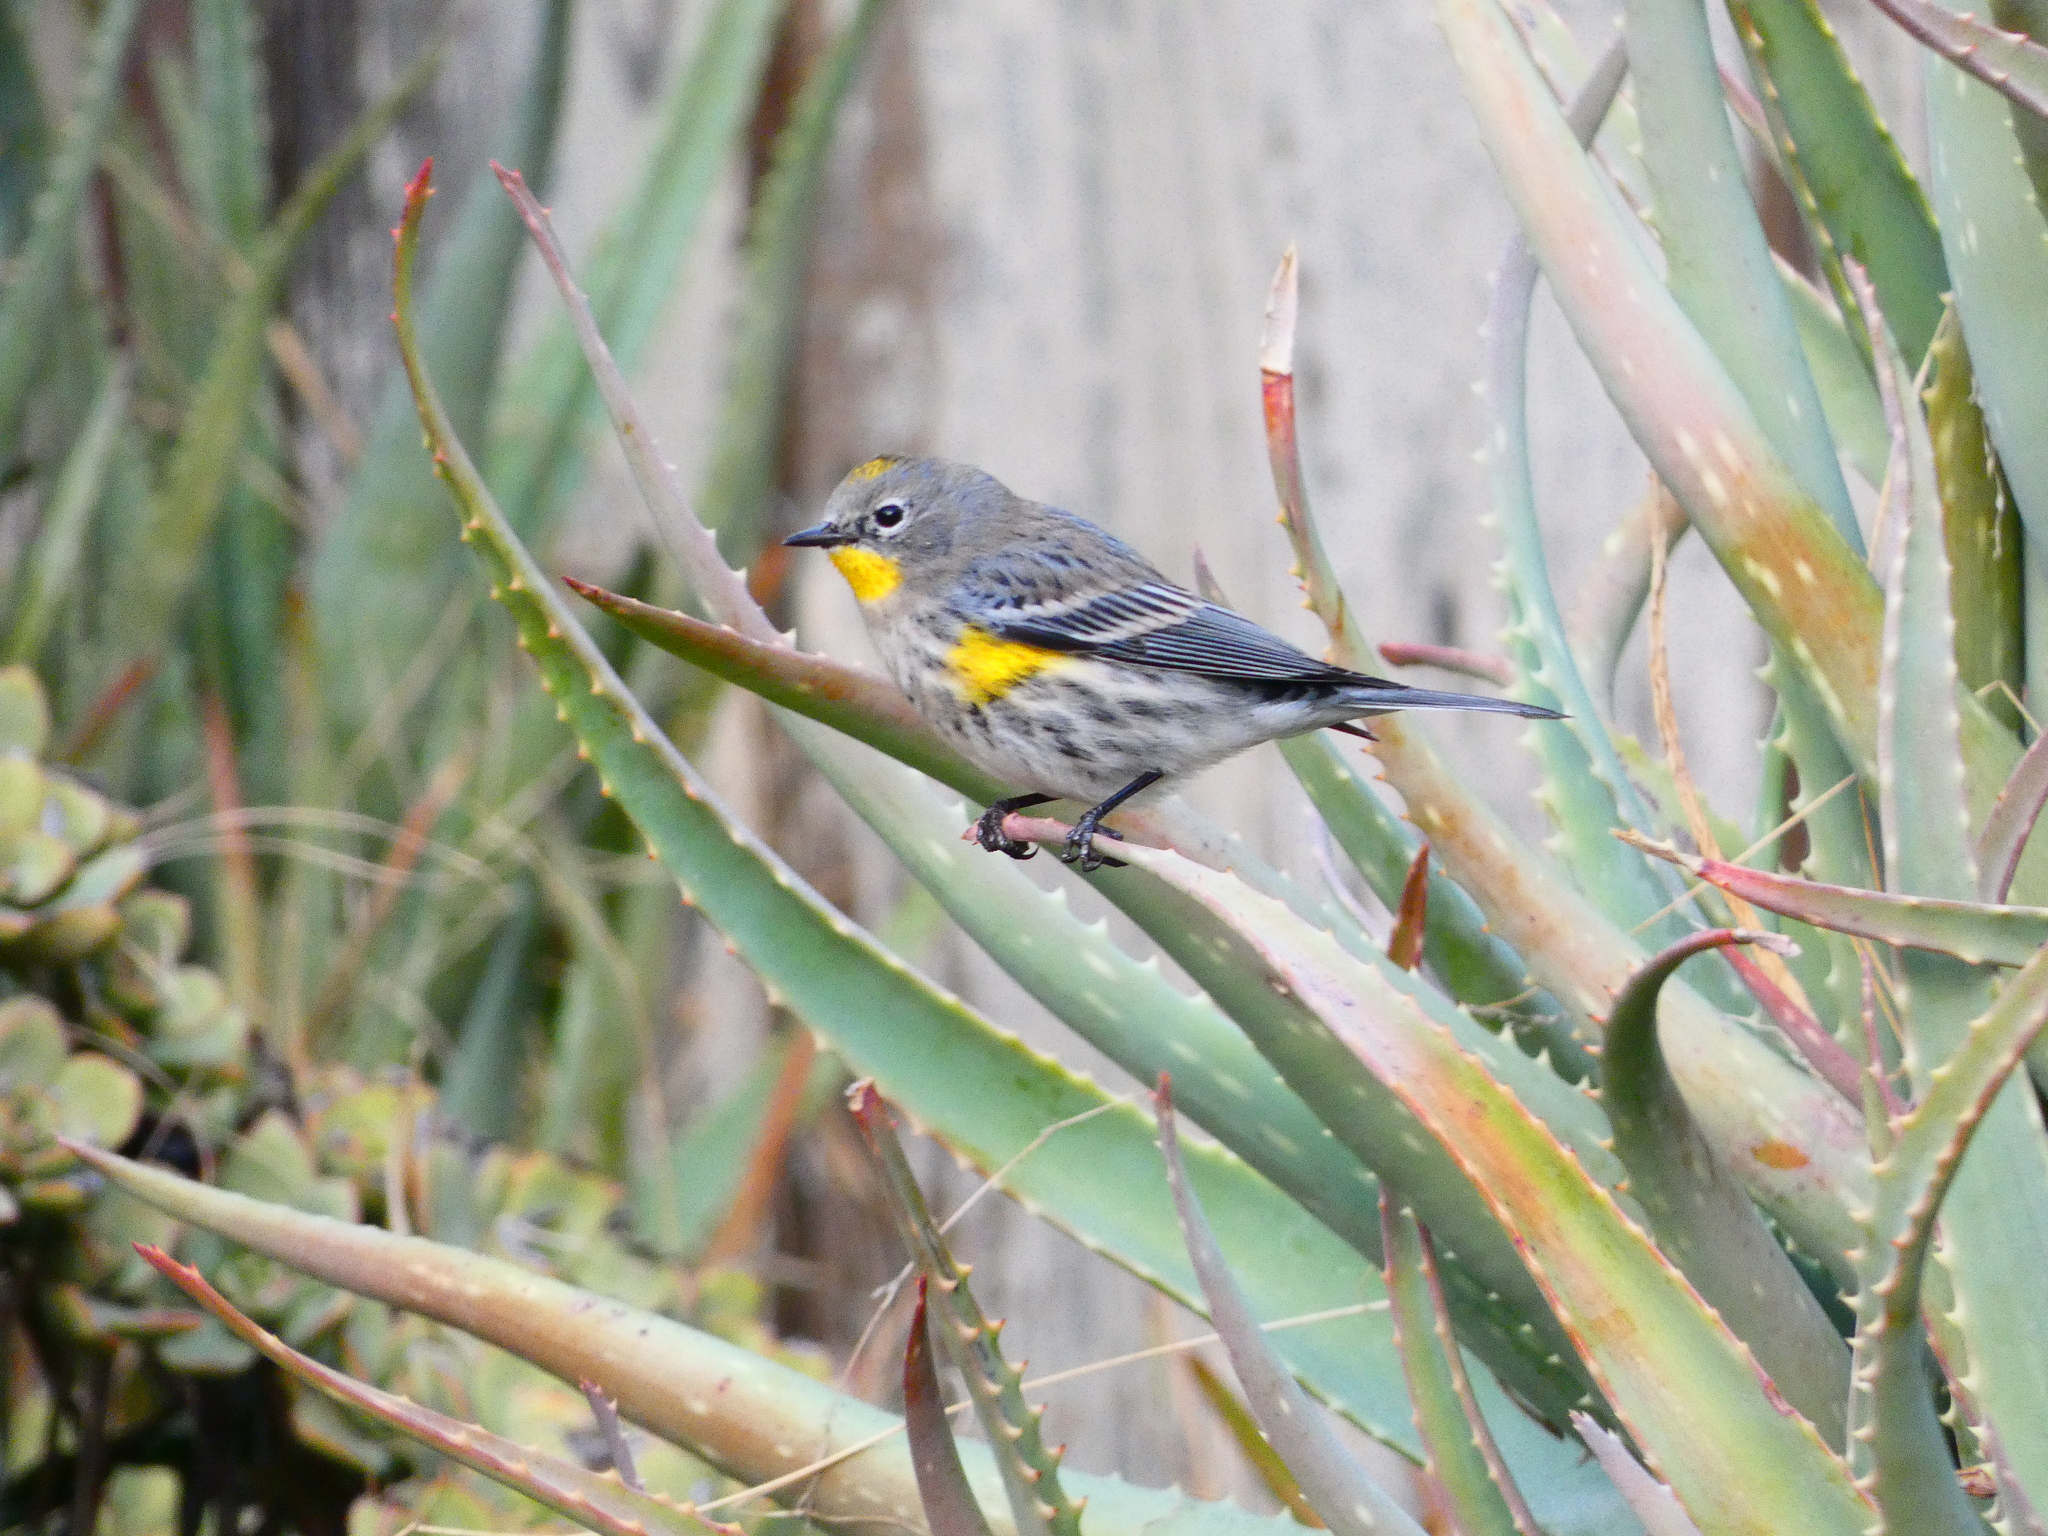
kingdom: Animalia
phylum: Chordata
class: Aves
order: Passeriformes
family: Parulidae
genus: Setophaga
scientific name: Setophaga coronata
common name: Myrtle warbler
